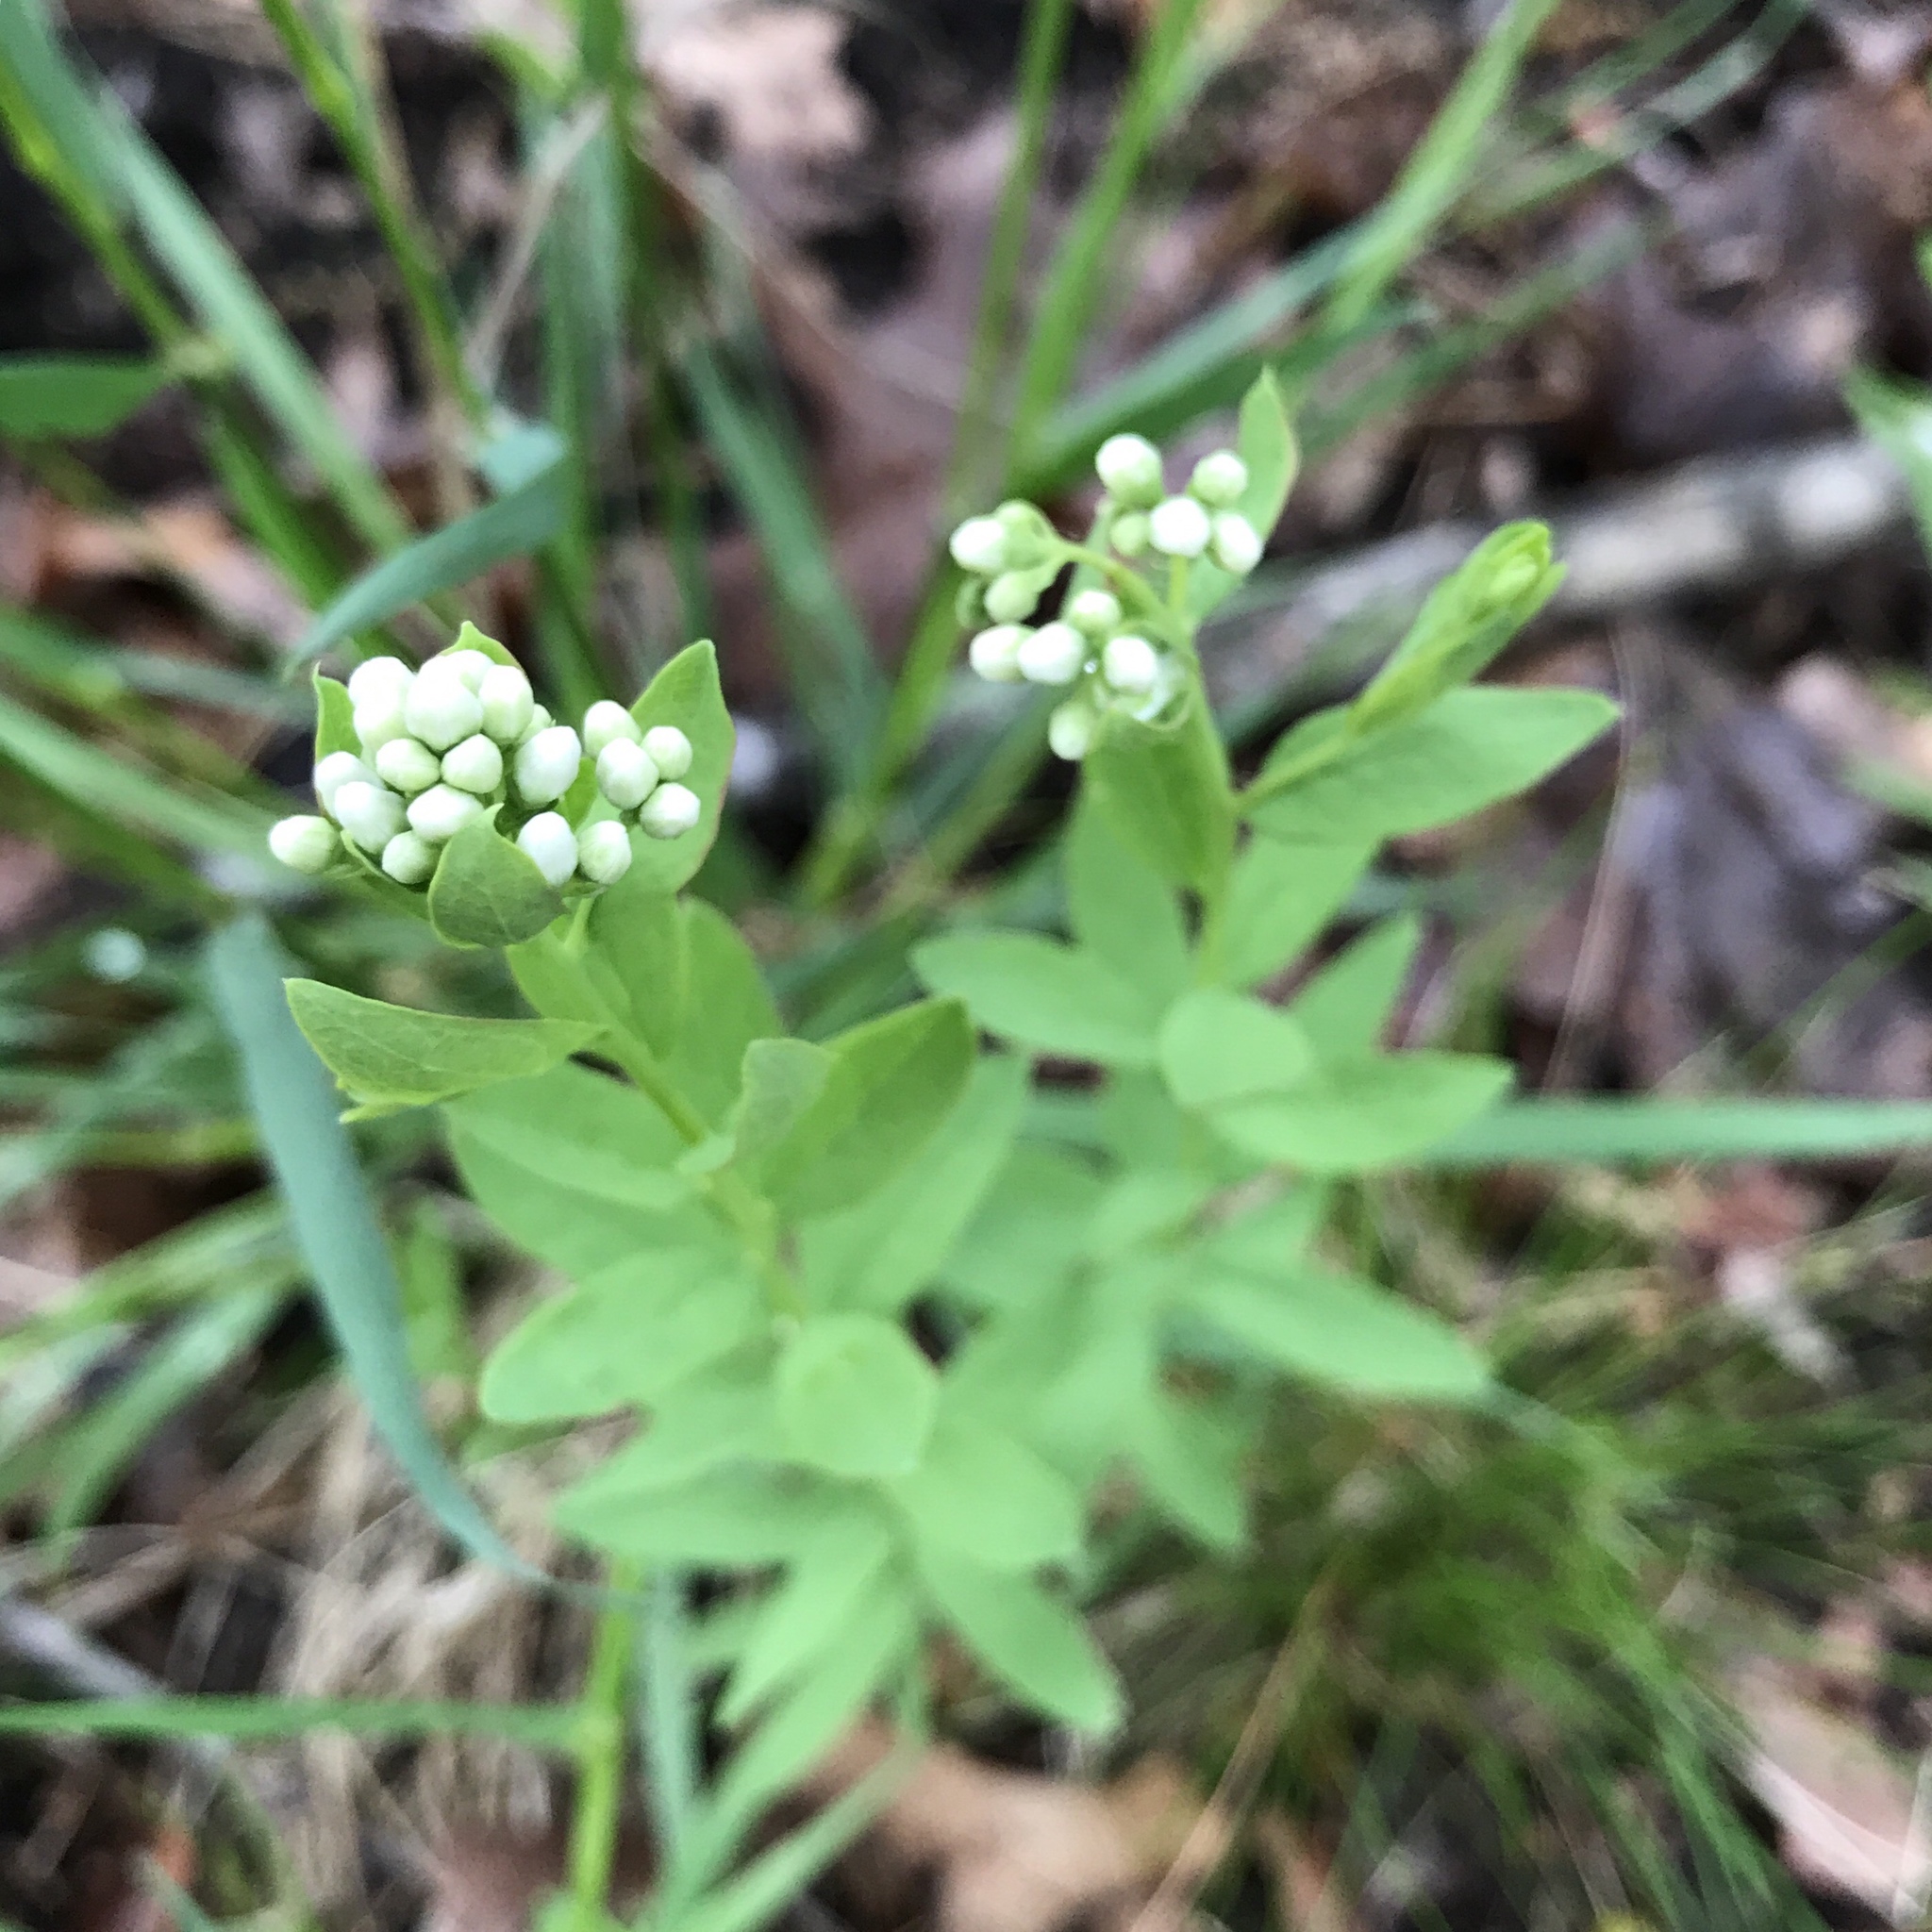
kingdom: Plantae
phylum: Tracheophyta
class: Magnoliopsida
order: Santalales
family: Comandraceae
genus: Comandra
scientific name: Comandra umbellata
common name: Bastard toadflax
